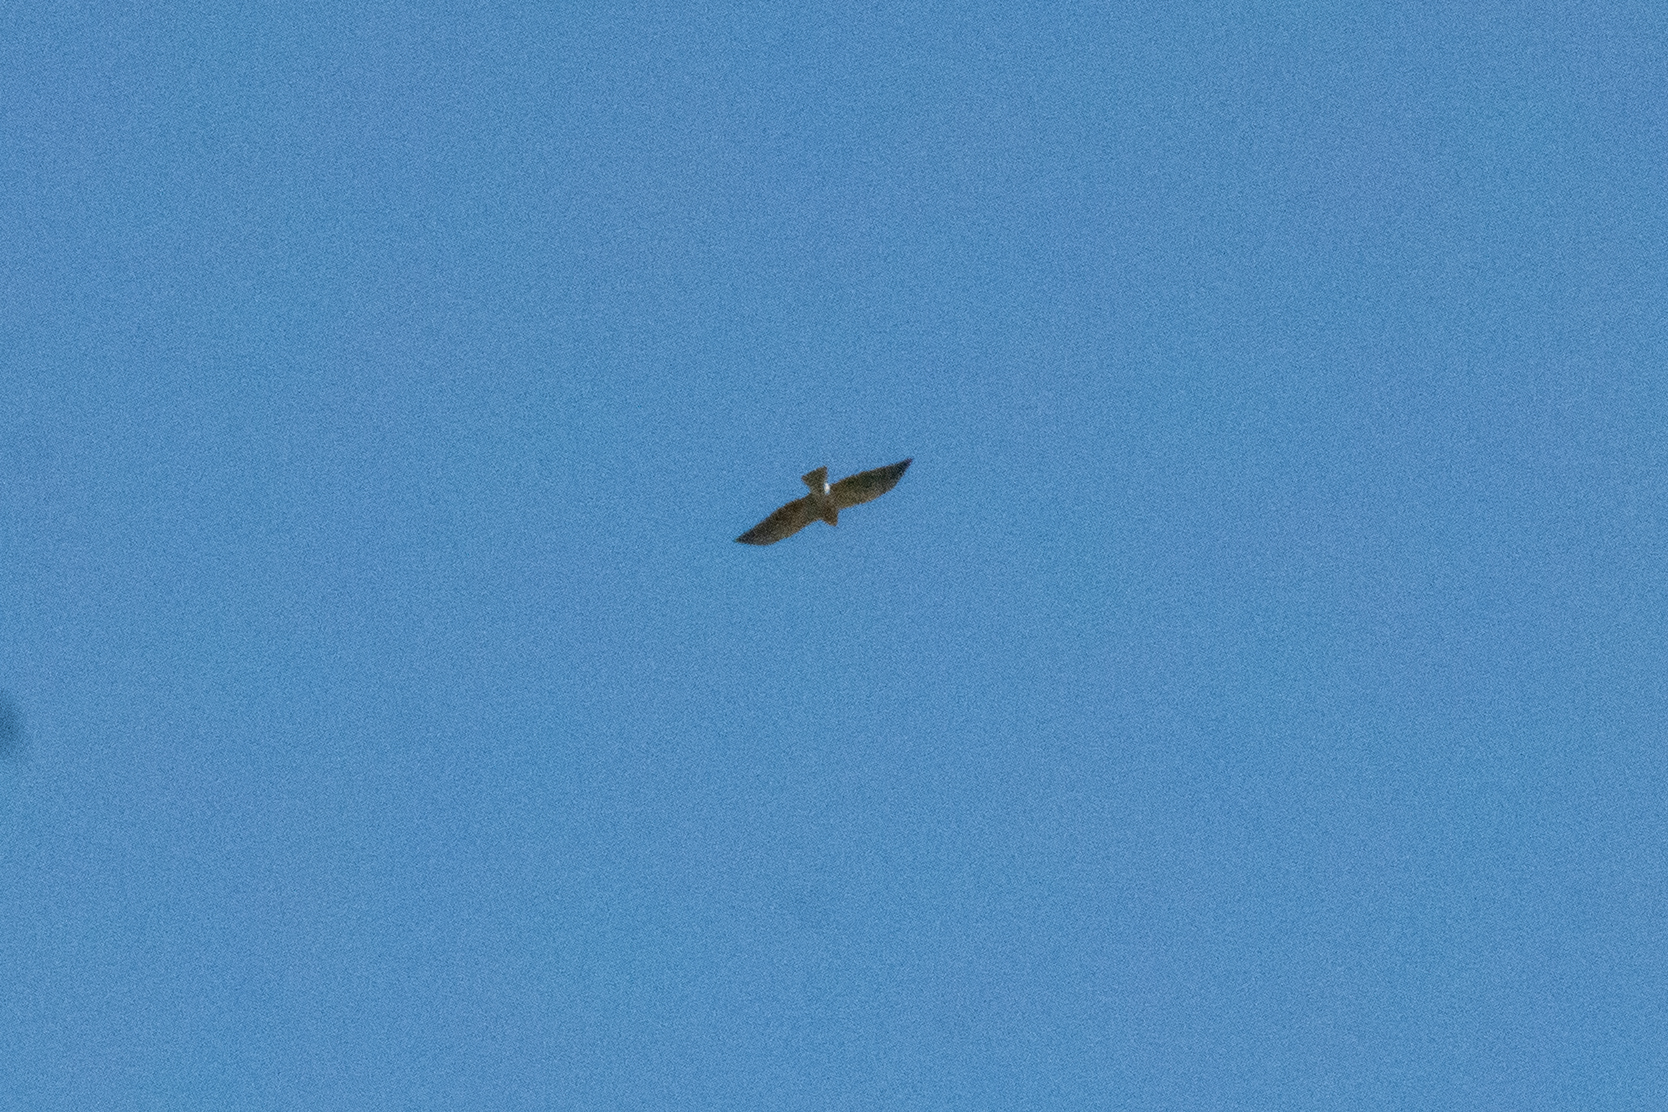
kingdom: Animalia
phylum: Chordata
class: Aves
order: Accipitriformes
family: Accipitridae
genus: Buteo
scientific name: Buteo swainsoni
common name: Swainson's hawk
